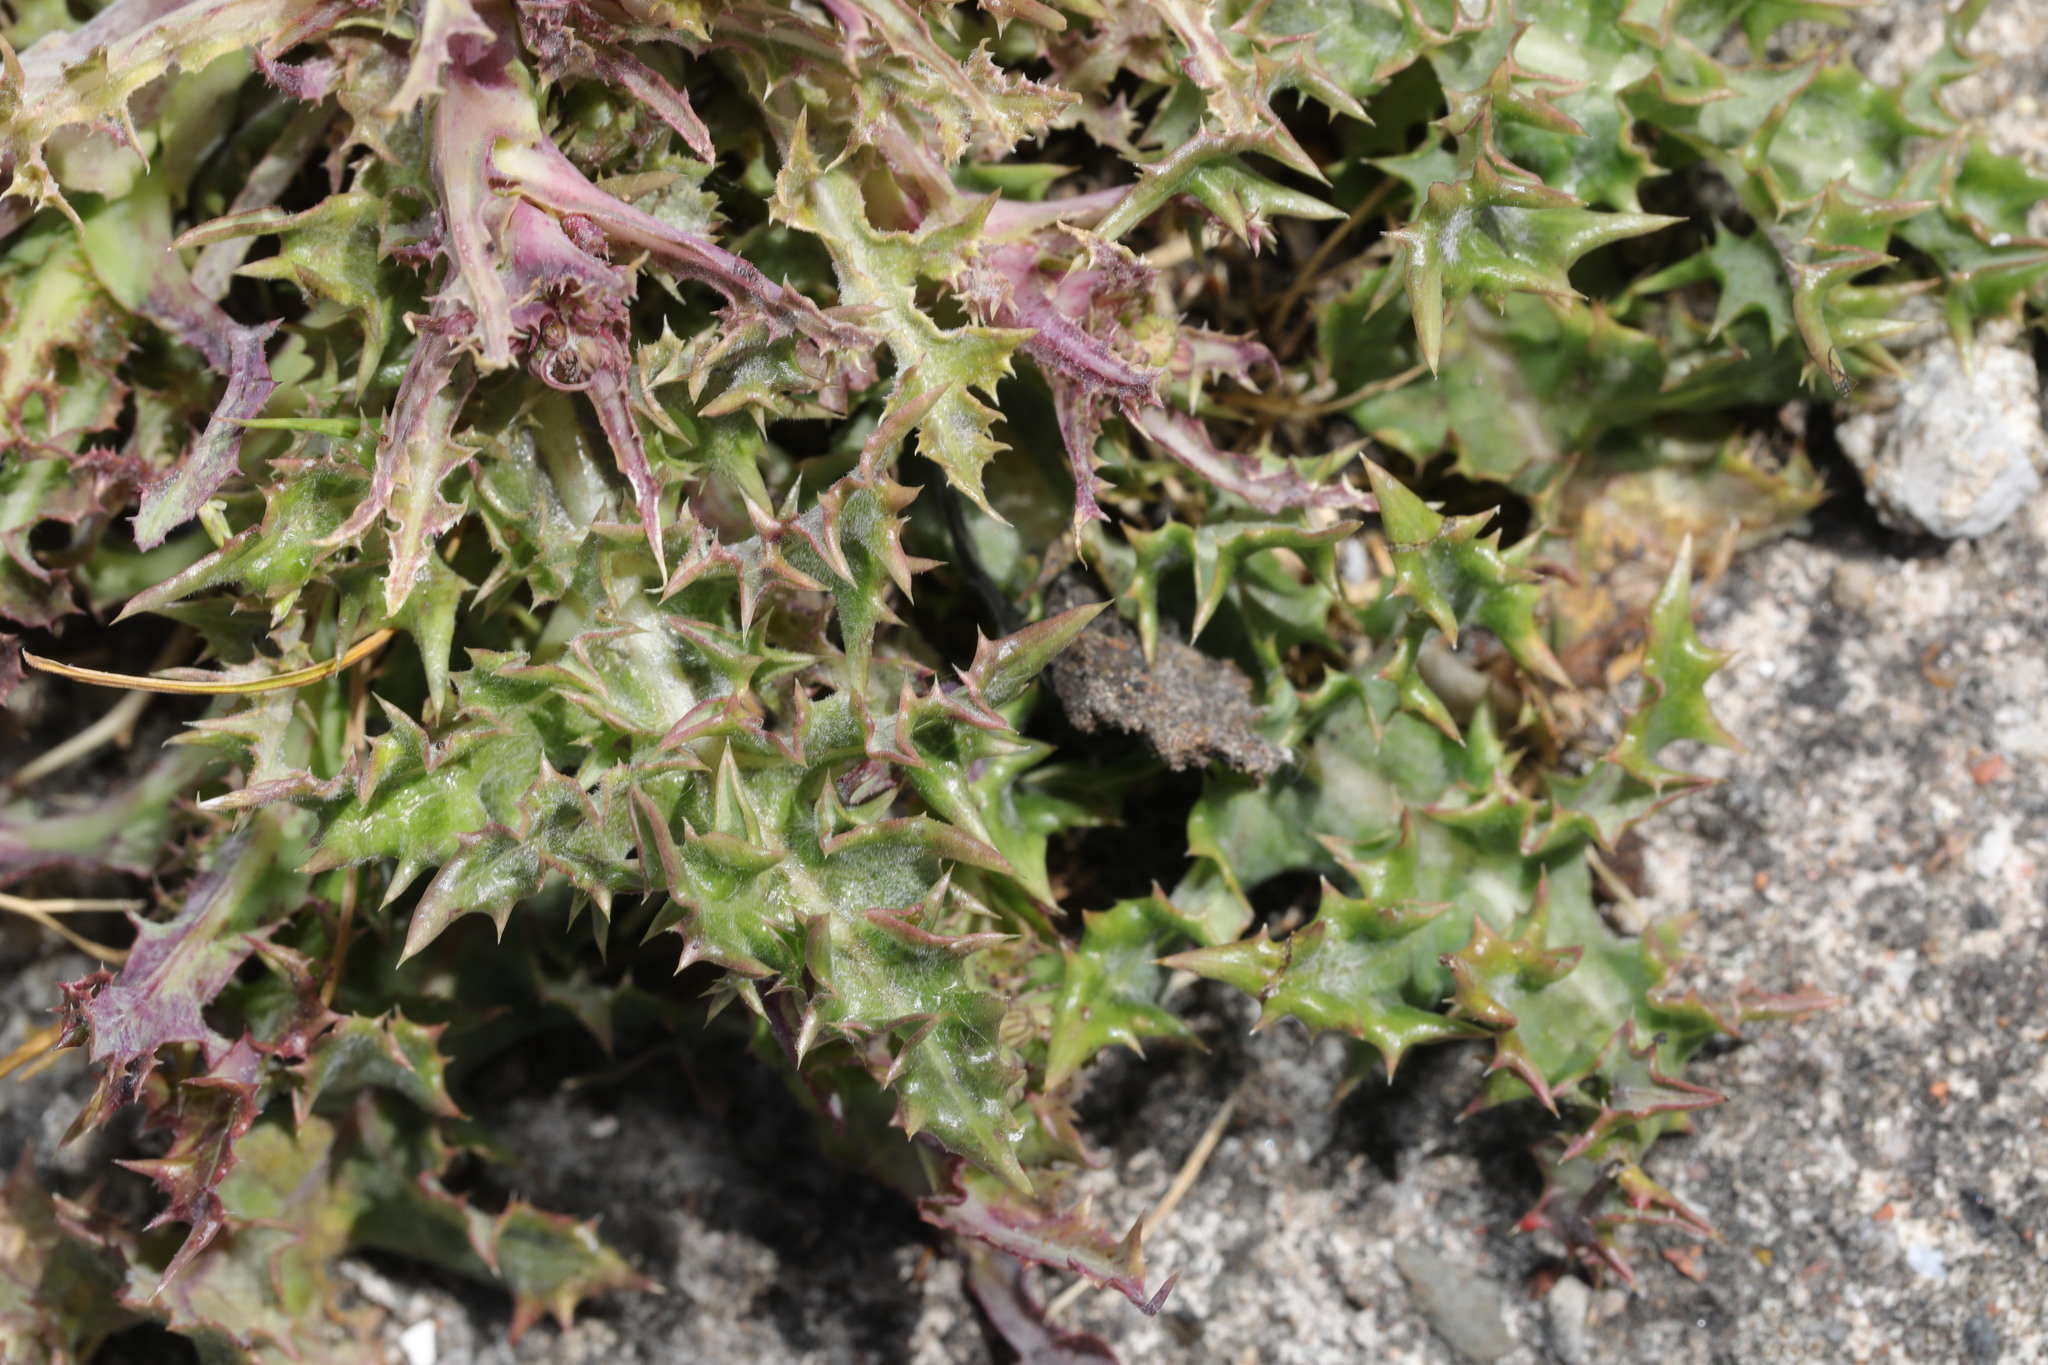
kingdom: Plantae
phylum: Tracheophyta
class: Magnoliopsida
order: Asterales
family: Asteraceae
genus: Sonchus
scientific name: Sonchus asper
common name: Prickly sow-thistle
